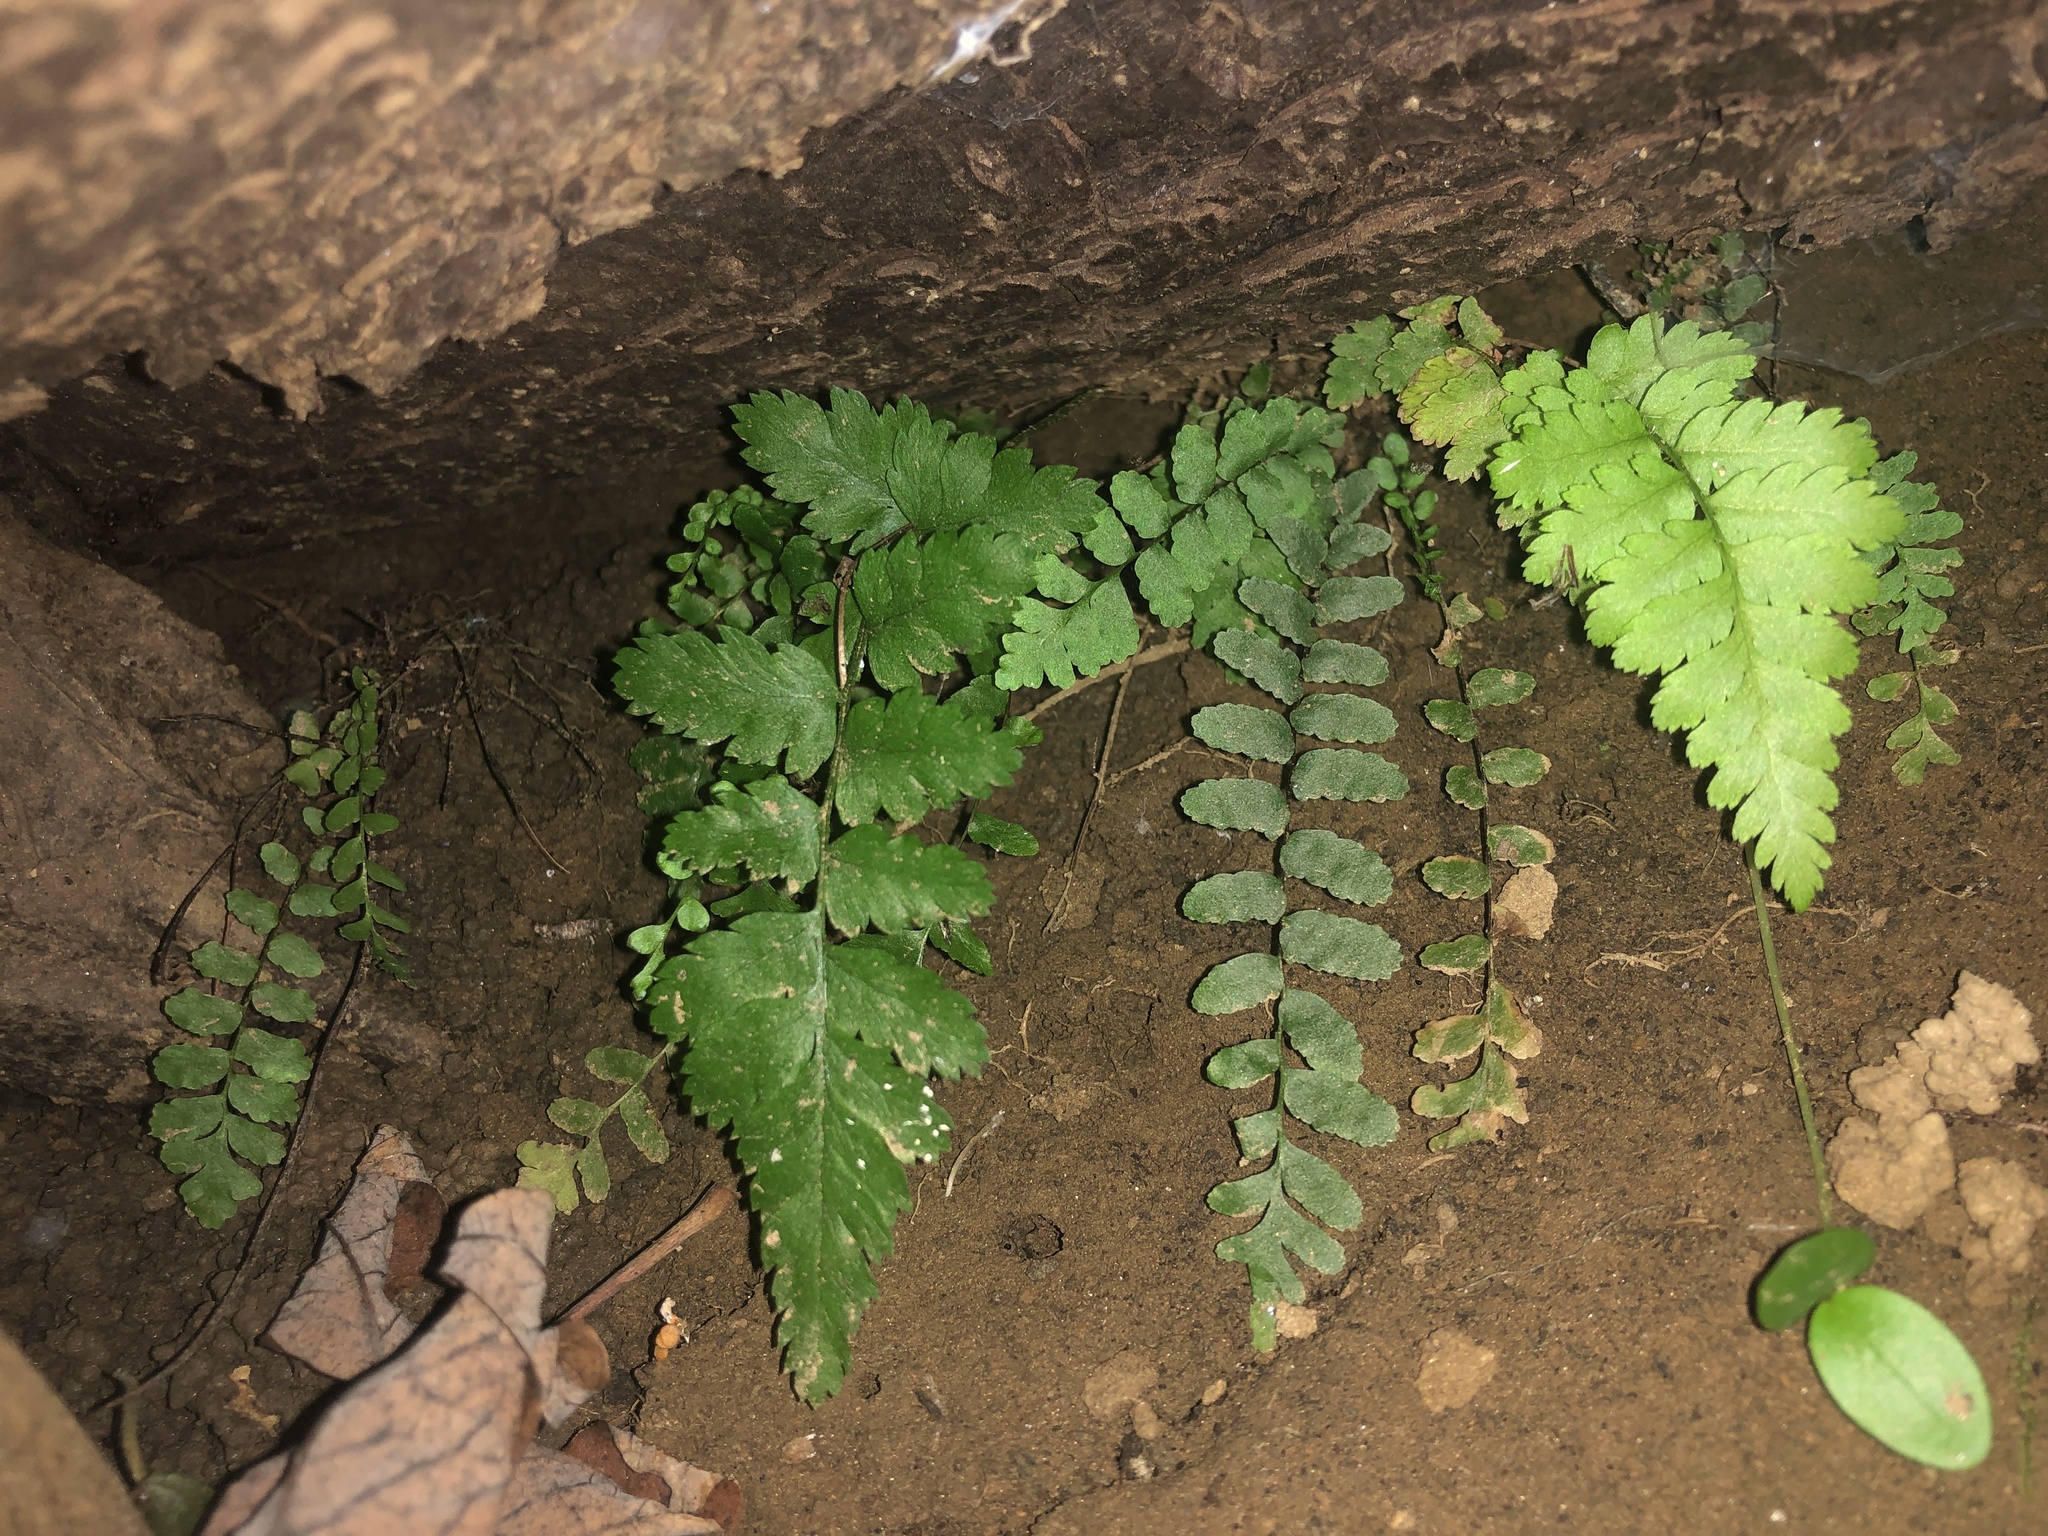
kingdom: Plantae
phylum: Tracheophyta
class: Polypodiopsida
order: Polypodiales
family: Aspleniaceae
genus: Asplenium
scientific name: Asplenium platyneuron
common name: Ebony spleenwort
